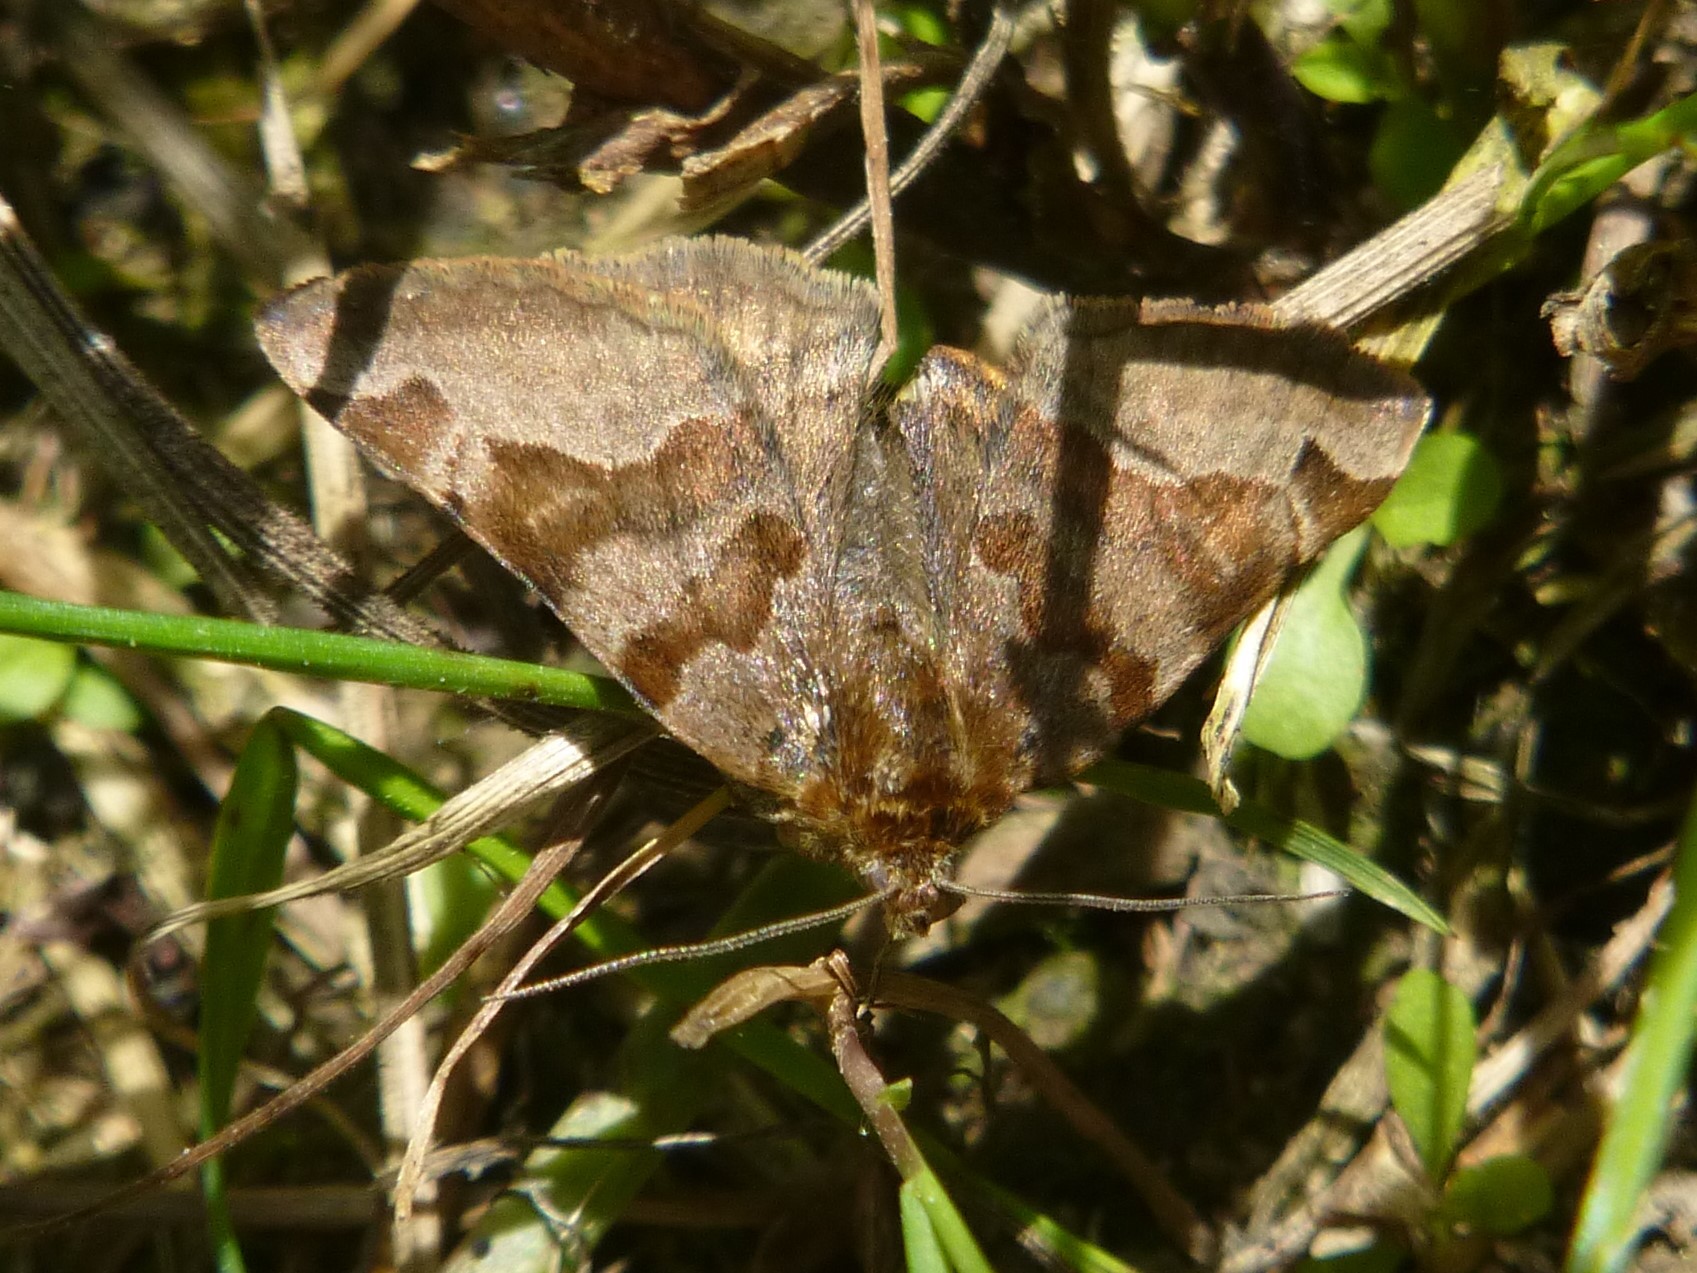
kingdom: Animalia
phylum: Arthropoda
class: Insecta
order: Lepidoptera
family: Erebidae
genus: Euclidia
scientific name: Euclidia glyphica
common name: Burnet companion
